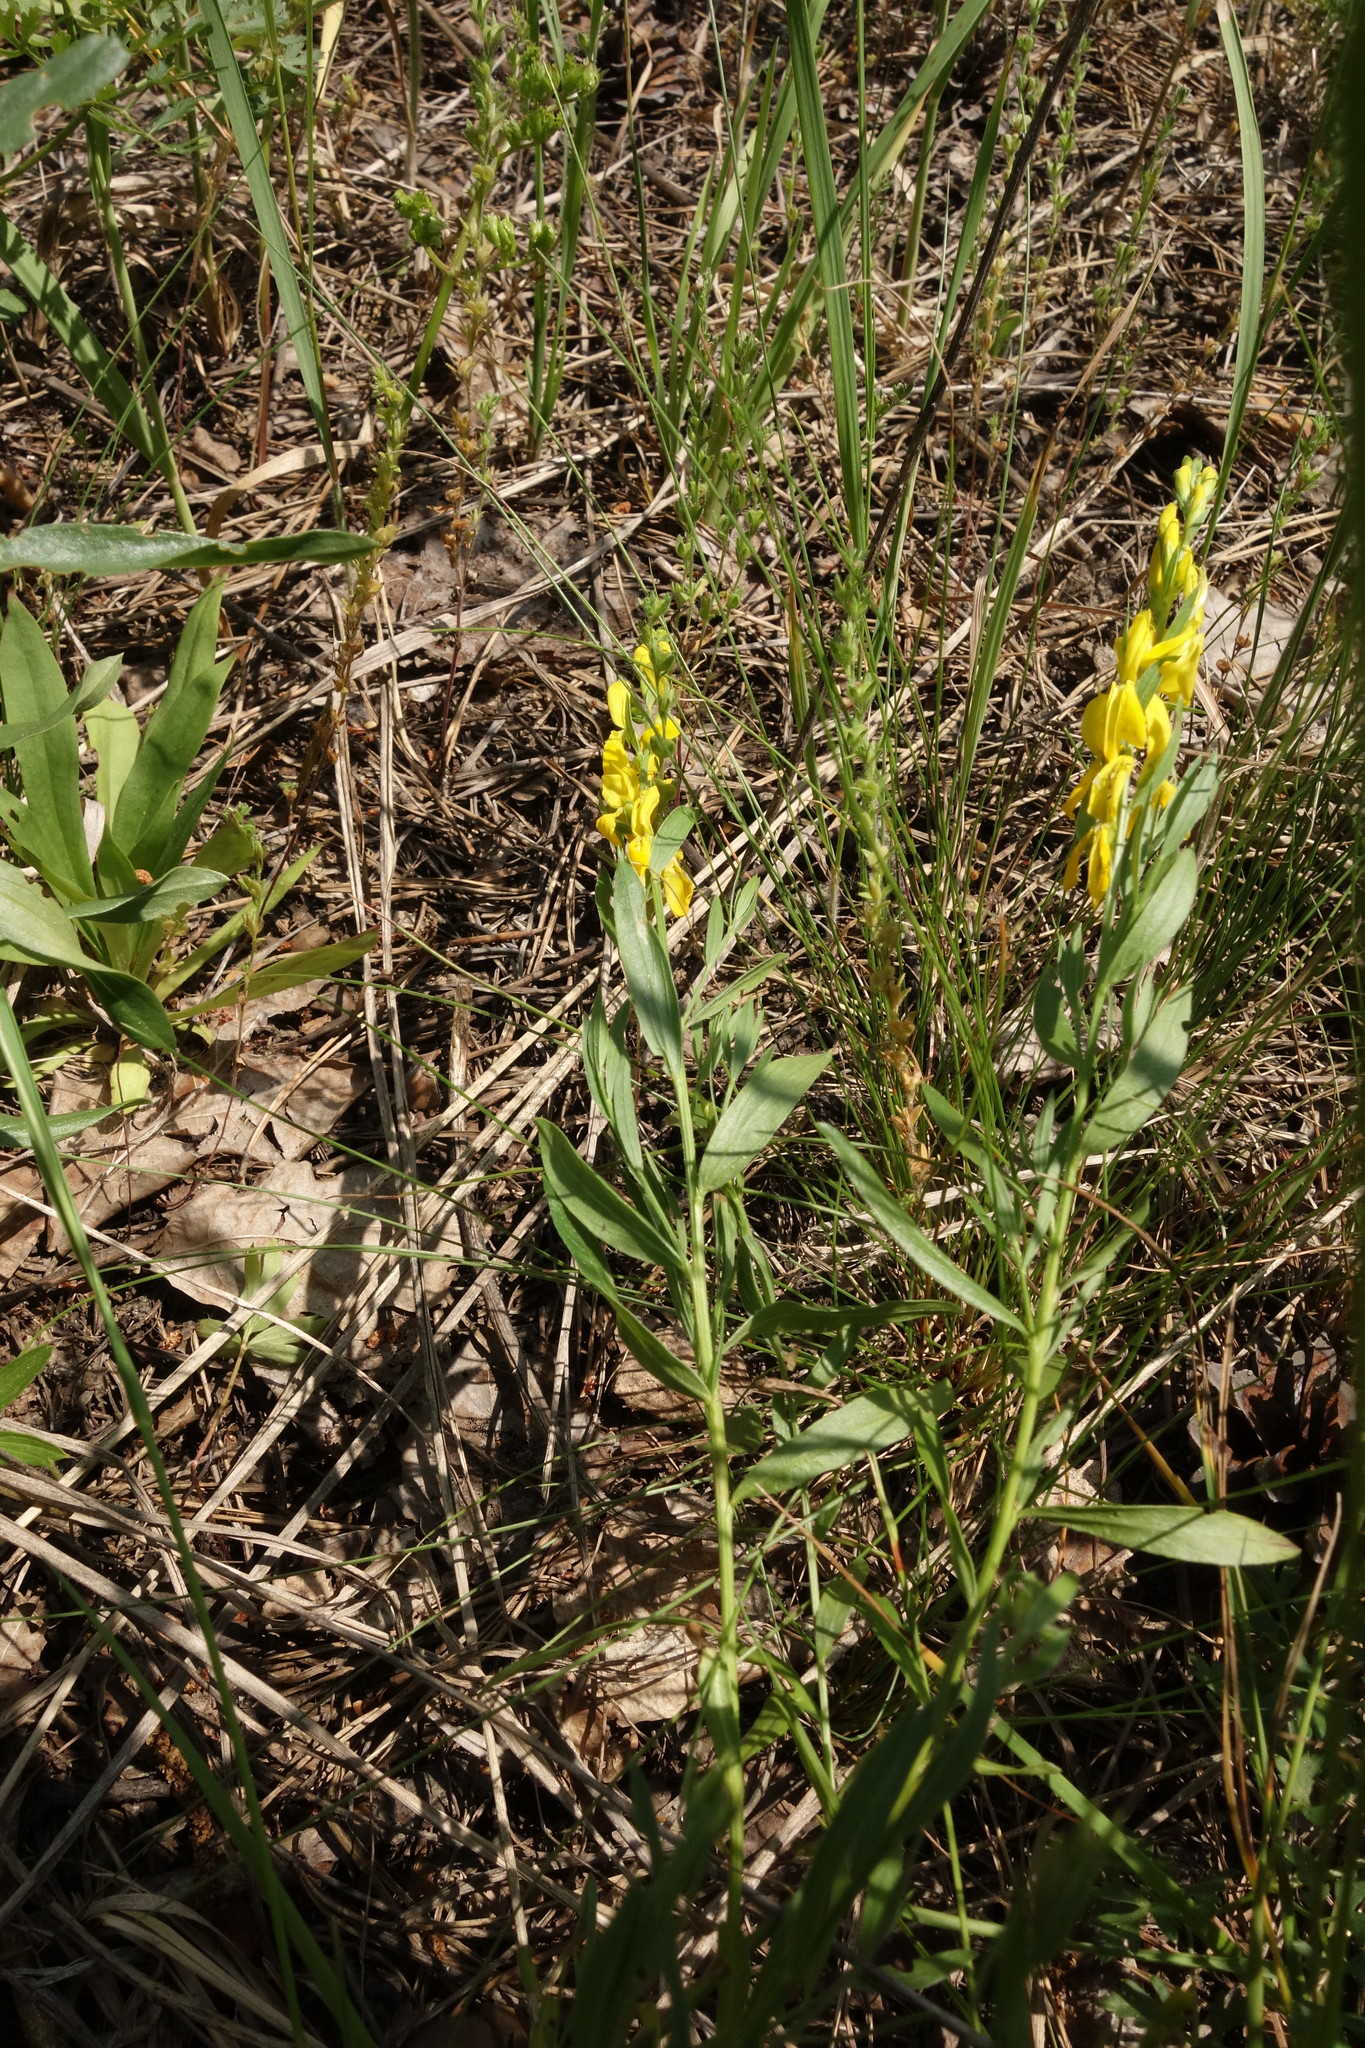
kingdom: Plantae
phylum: Tracheophyta
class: Magnoliopsida
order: Fabales
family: Fabaceae
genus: Genista
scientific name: Genista tinctoria
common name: Dyer's greenweed
